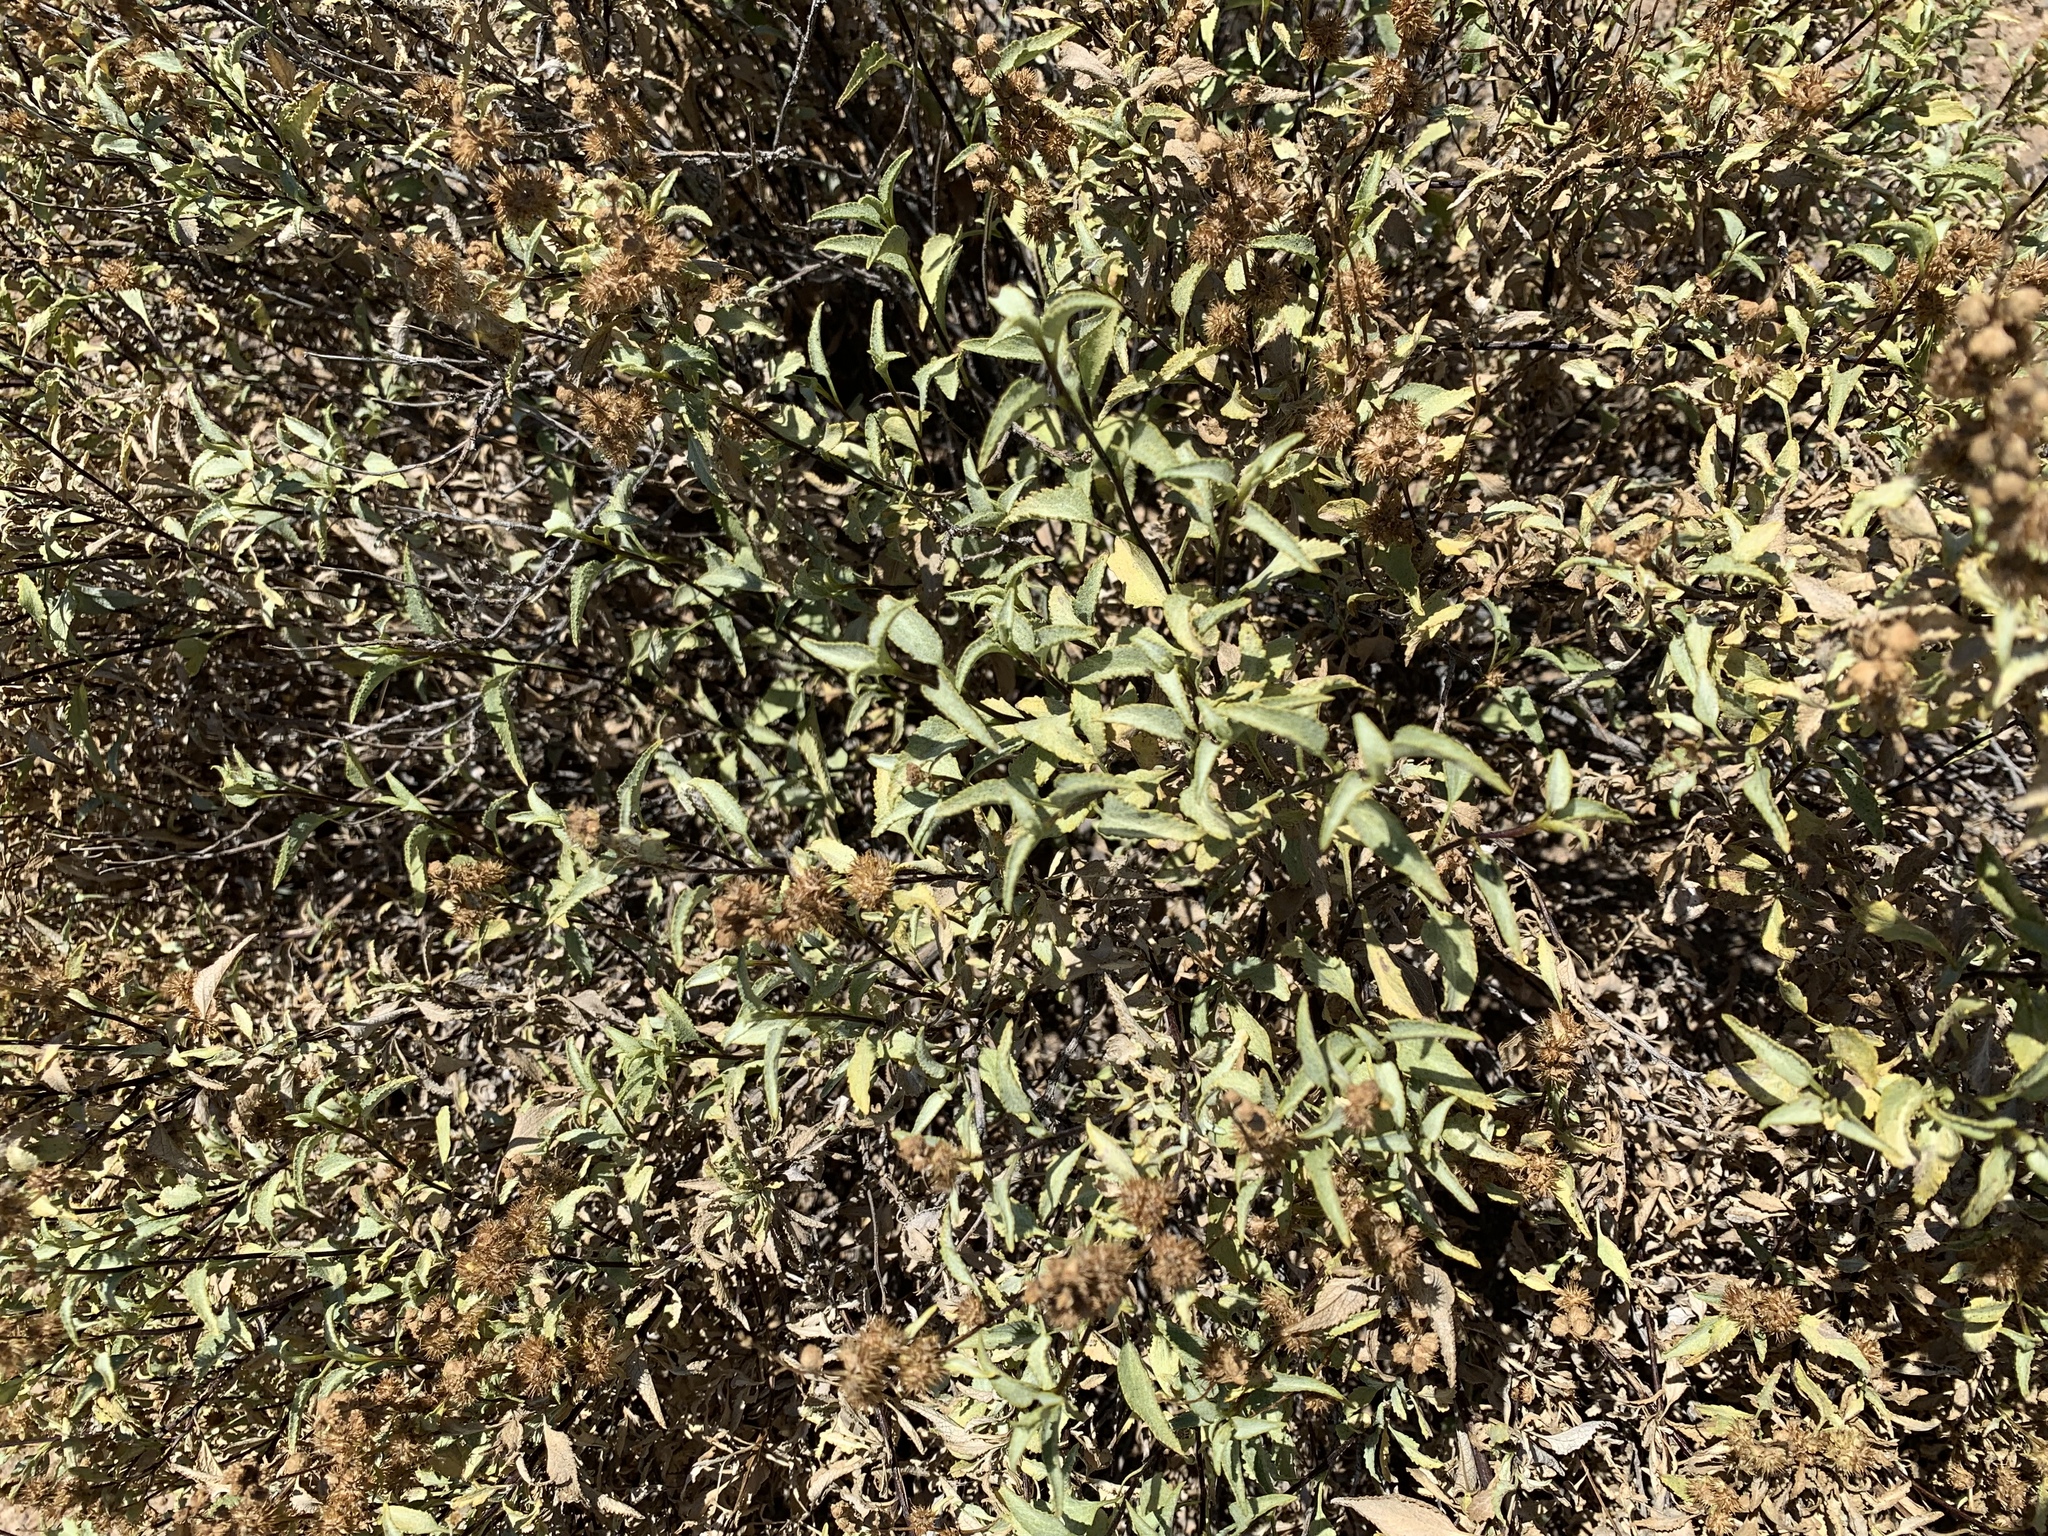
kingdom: Plantae
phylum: Tracheophyta
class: Magnoliopsida
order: Asterales
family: Asteraceae
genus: Ambrosia
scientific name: Ambrosia deltoidea
